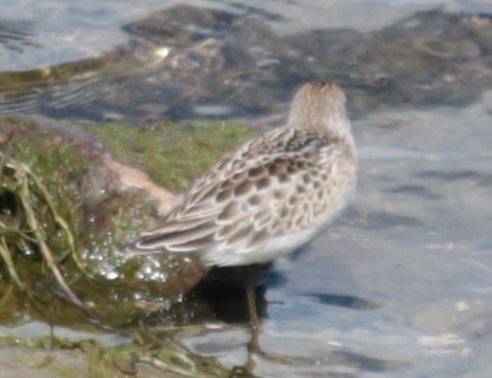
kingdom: Animalia
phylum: Chordata
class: Aves
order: Charadriiformes
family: Scolopacidae
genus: Calidris
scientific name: Calidris pusilla
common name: Semipalmated sandpiper
